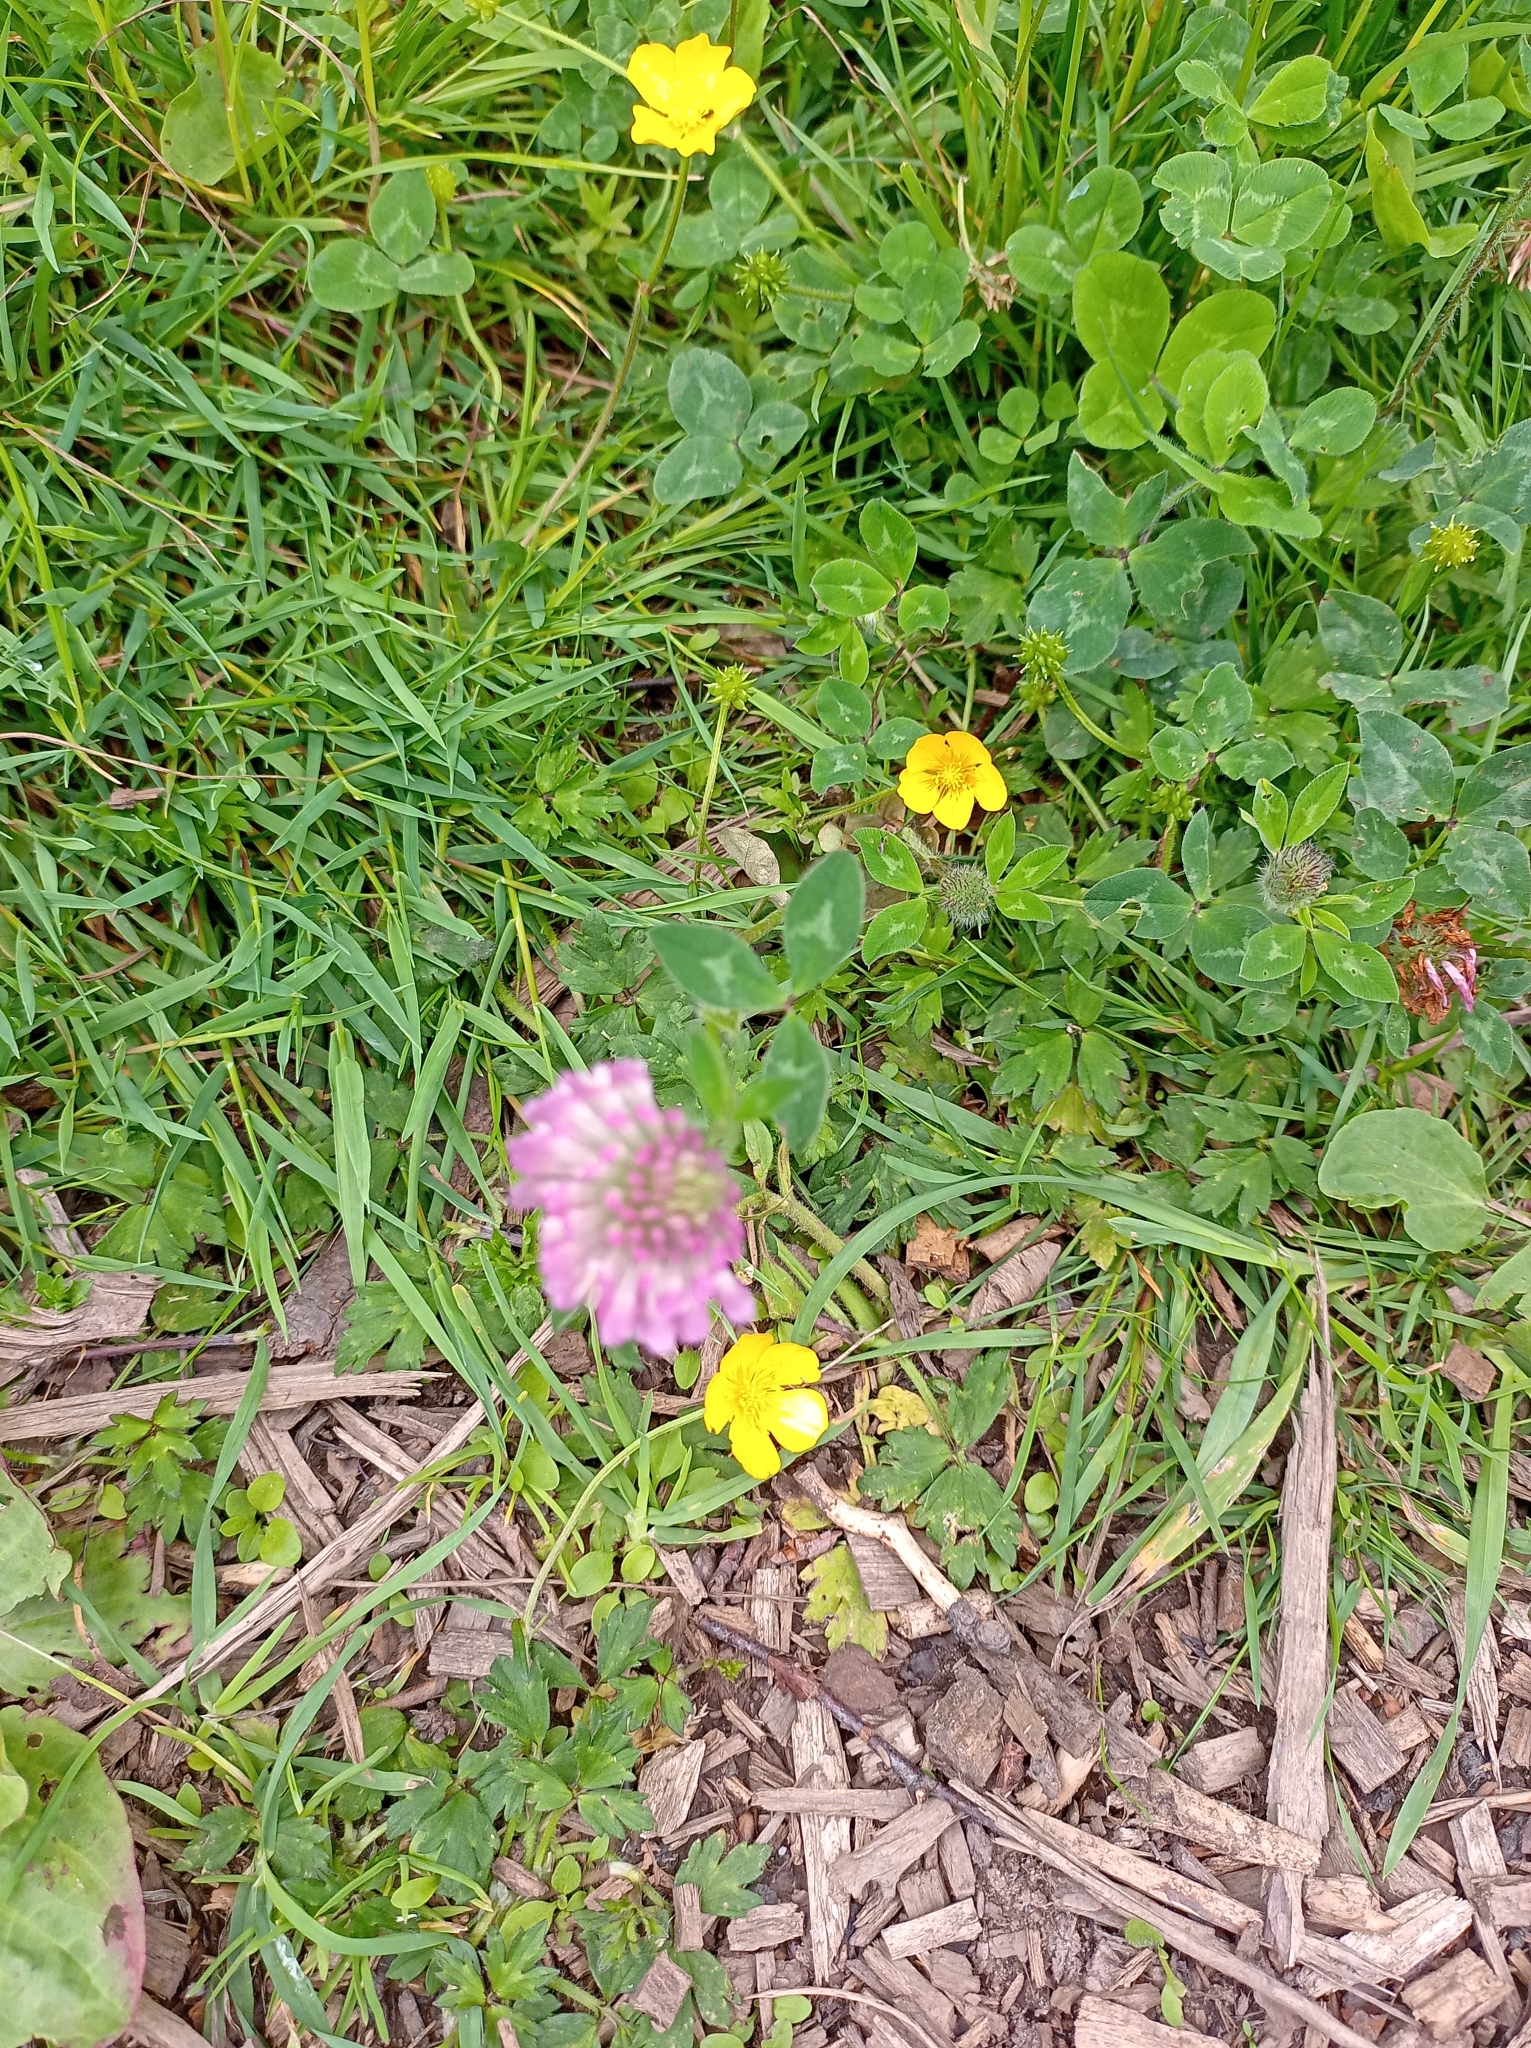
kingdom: Plantae
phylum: Tracheophyta
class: Magnoliopsida
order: Fabales
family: Fabaceae
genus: Trifolium
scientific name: Trifolium pratense
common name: Red clover
